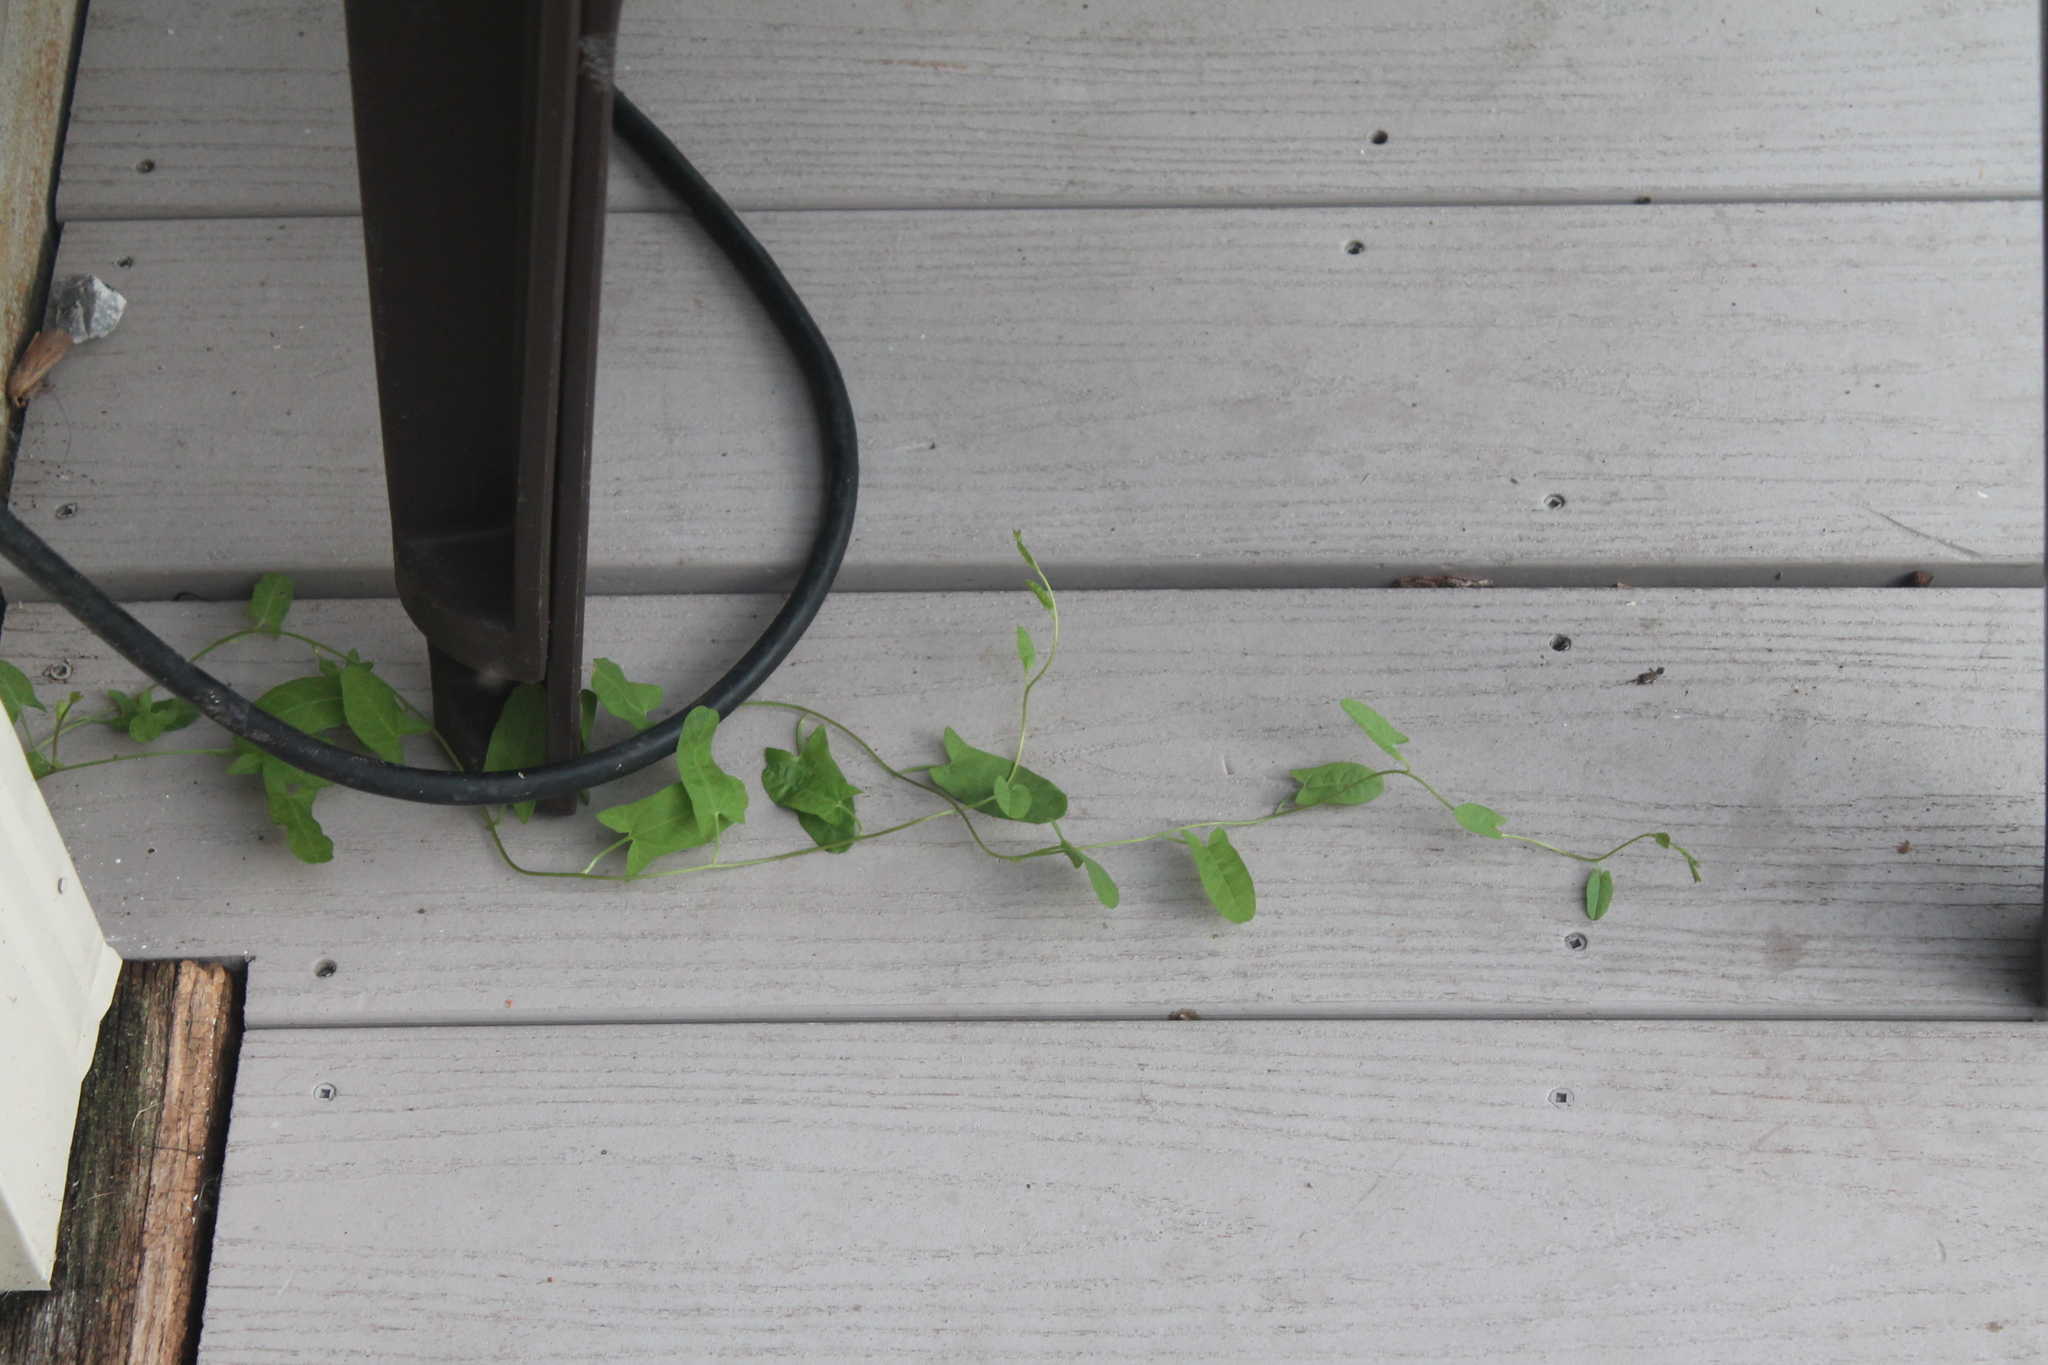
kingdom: Plantae
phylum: Tracheophyta
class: Magnoliopsida
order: Solanales
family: Convolvulaceae
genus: Calystegia
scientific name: Calystegia sepium
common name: Hedge bindweed
